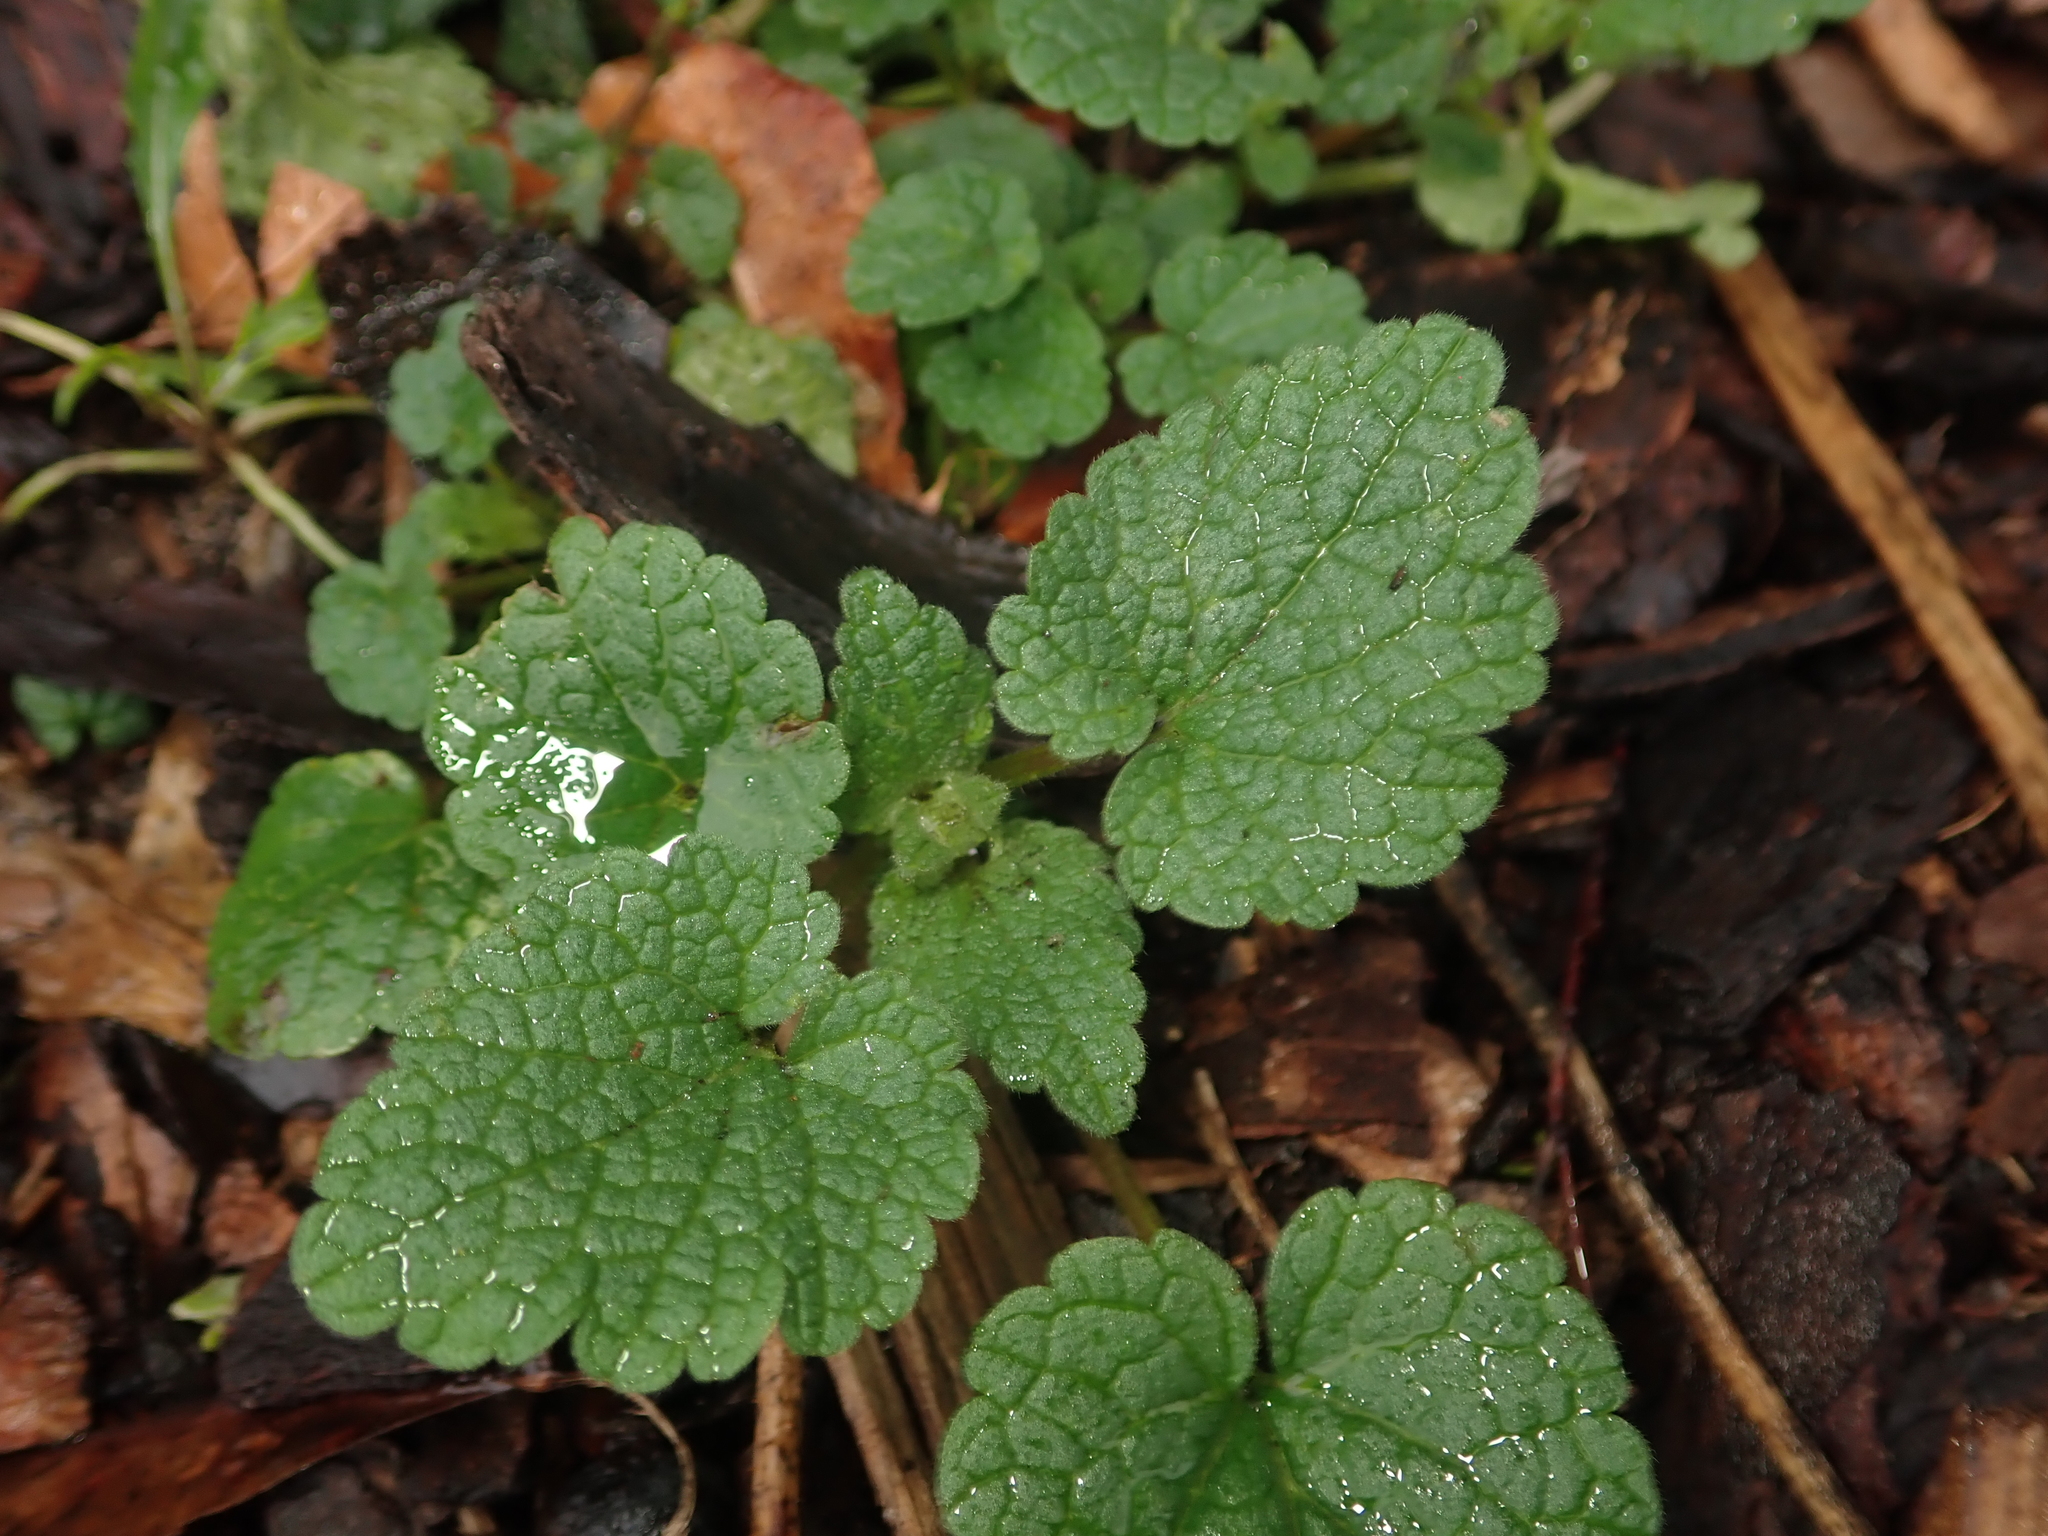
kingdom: Plantae
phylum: Tracheophyta
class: Magnoliopsida
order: Lamiales
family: Lamiaceae
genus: Lamium
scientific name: Lamium purpureum
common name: Red dead-nettle
